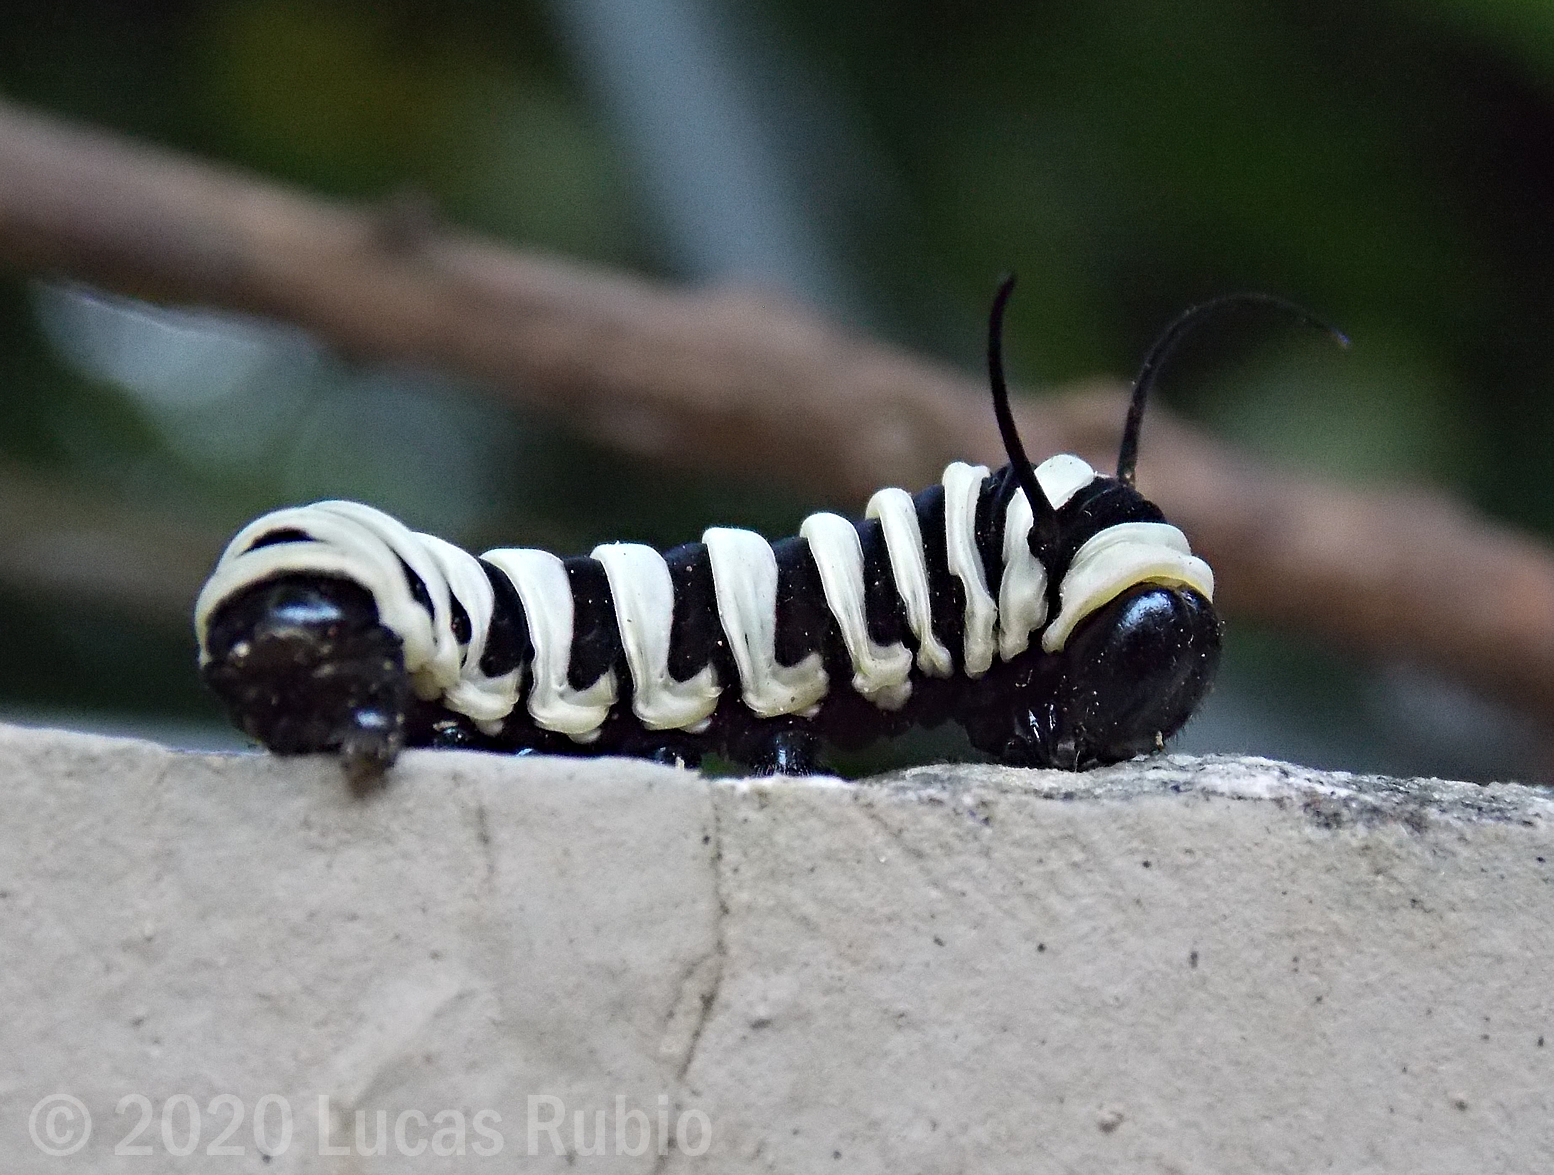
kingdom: Animalia
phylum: Arthropoda
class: Insecta
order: Lepidoptera
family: Nymphalidae
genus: Lycorea
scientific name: Lycorea cleobaea
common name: Tiger mimic-queen
